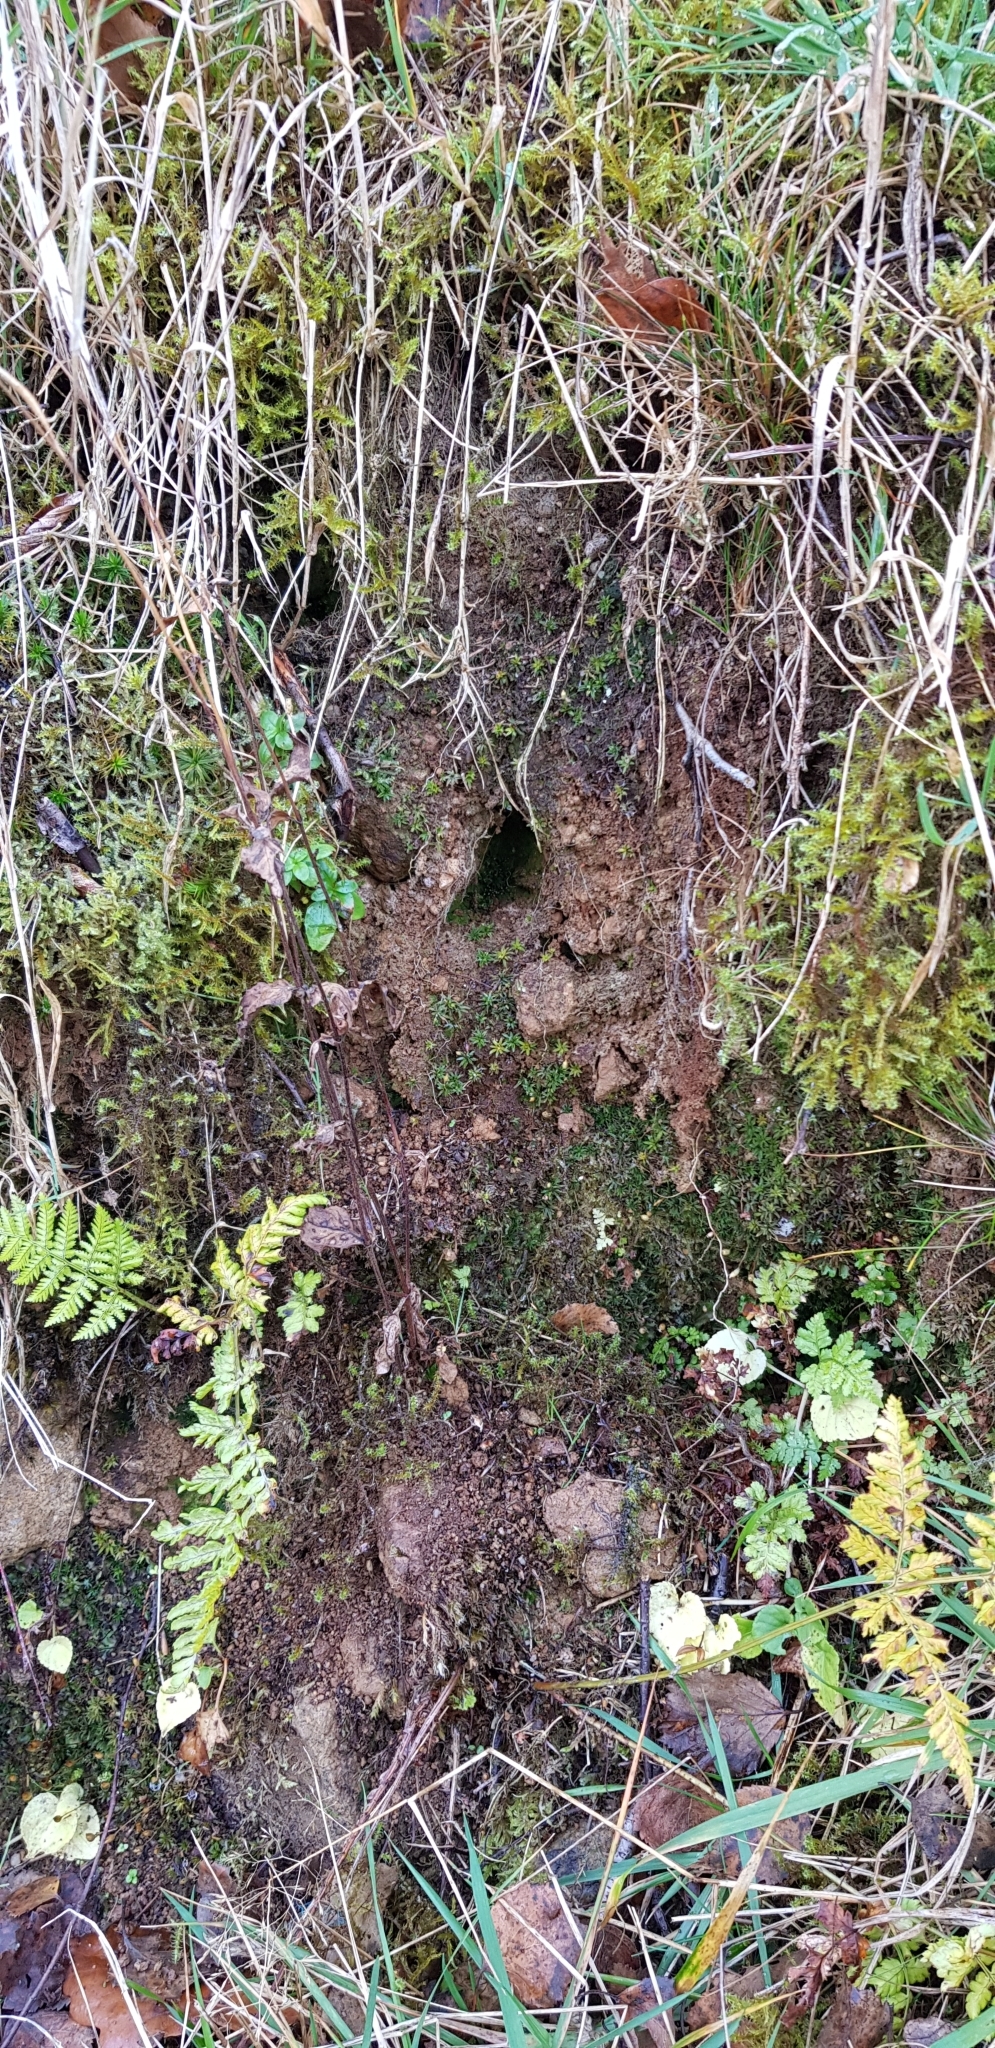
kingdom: Plantae
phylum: Bryophyta
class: Polytrichopsida
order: Polytrichales
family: Polytrichaceae
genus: Pogonatum
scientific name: Pogonatum aloides
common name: Aloe haircap
